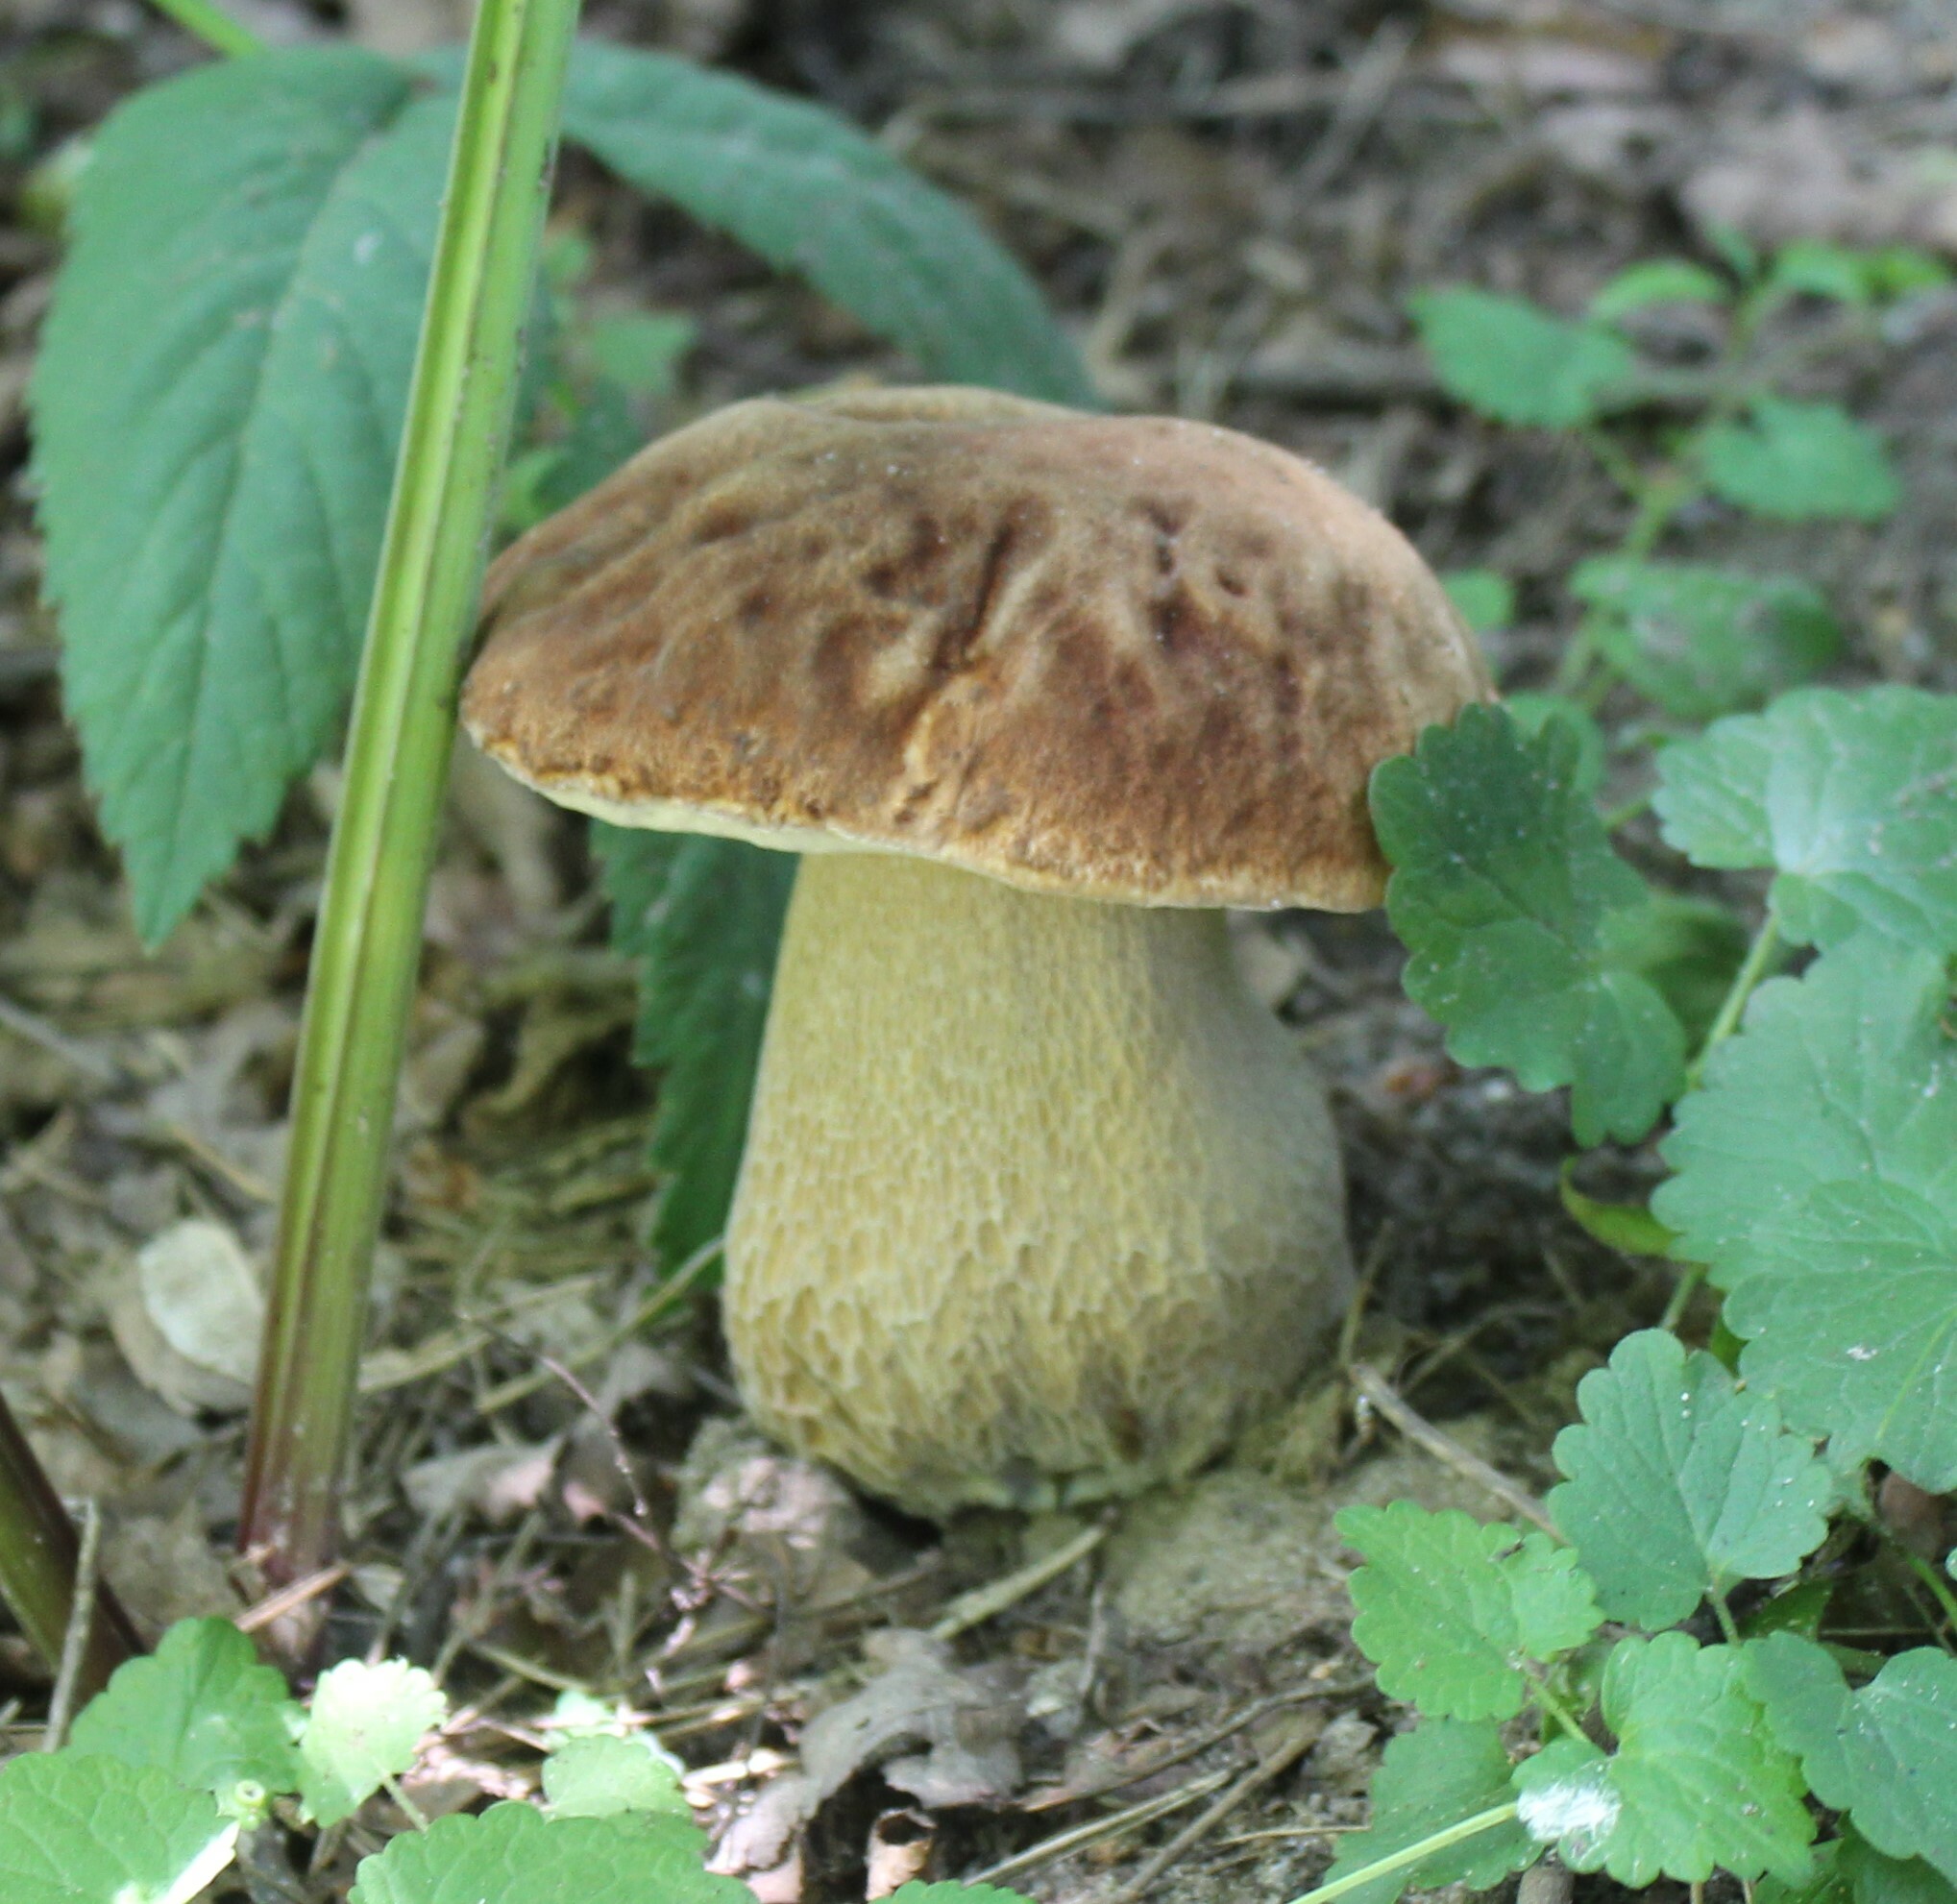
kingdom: Fungi
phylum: Basidiomycota
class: Agaricomycetes
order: Boletales
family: Boletaceae
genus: Boletus
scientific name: Boletus reticulatus
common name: Summer bolete
